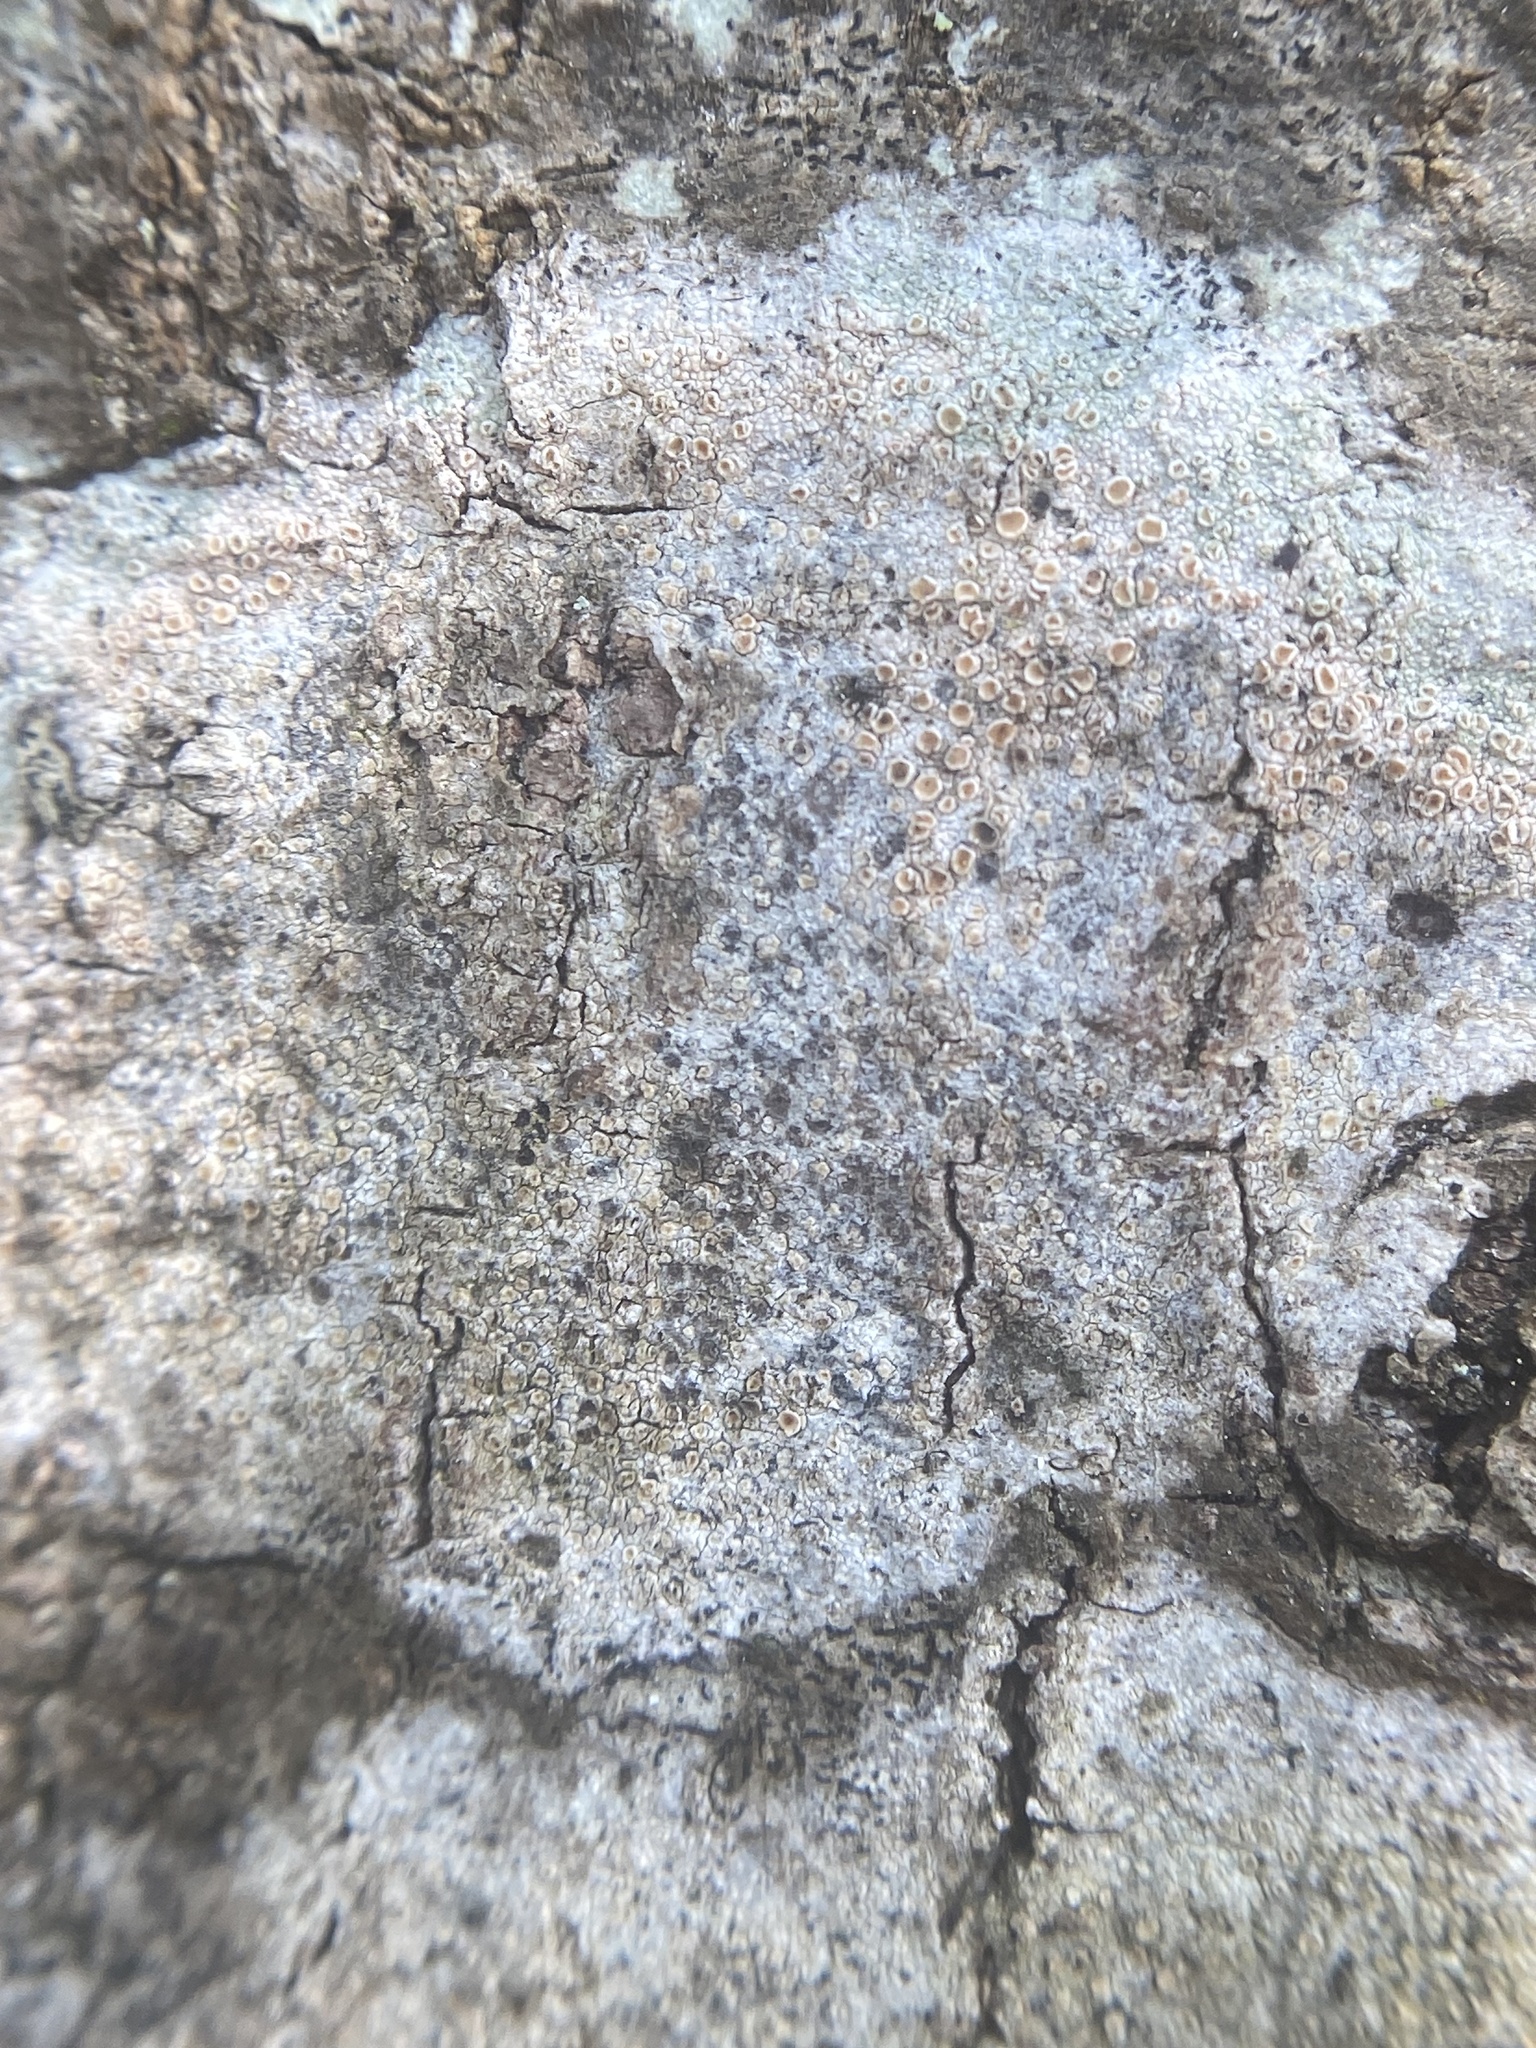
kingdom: Fungi
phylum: Ascomycota
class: Lecanoromycetes
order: Lecanorales
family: Lecanoraceae
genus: Lecanora
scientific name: Lecanora hybocarpa
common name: Bumpy rim-lichen
